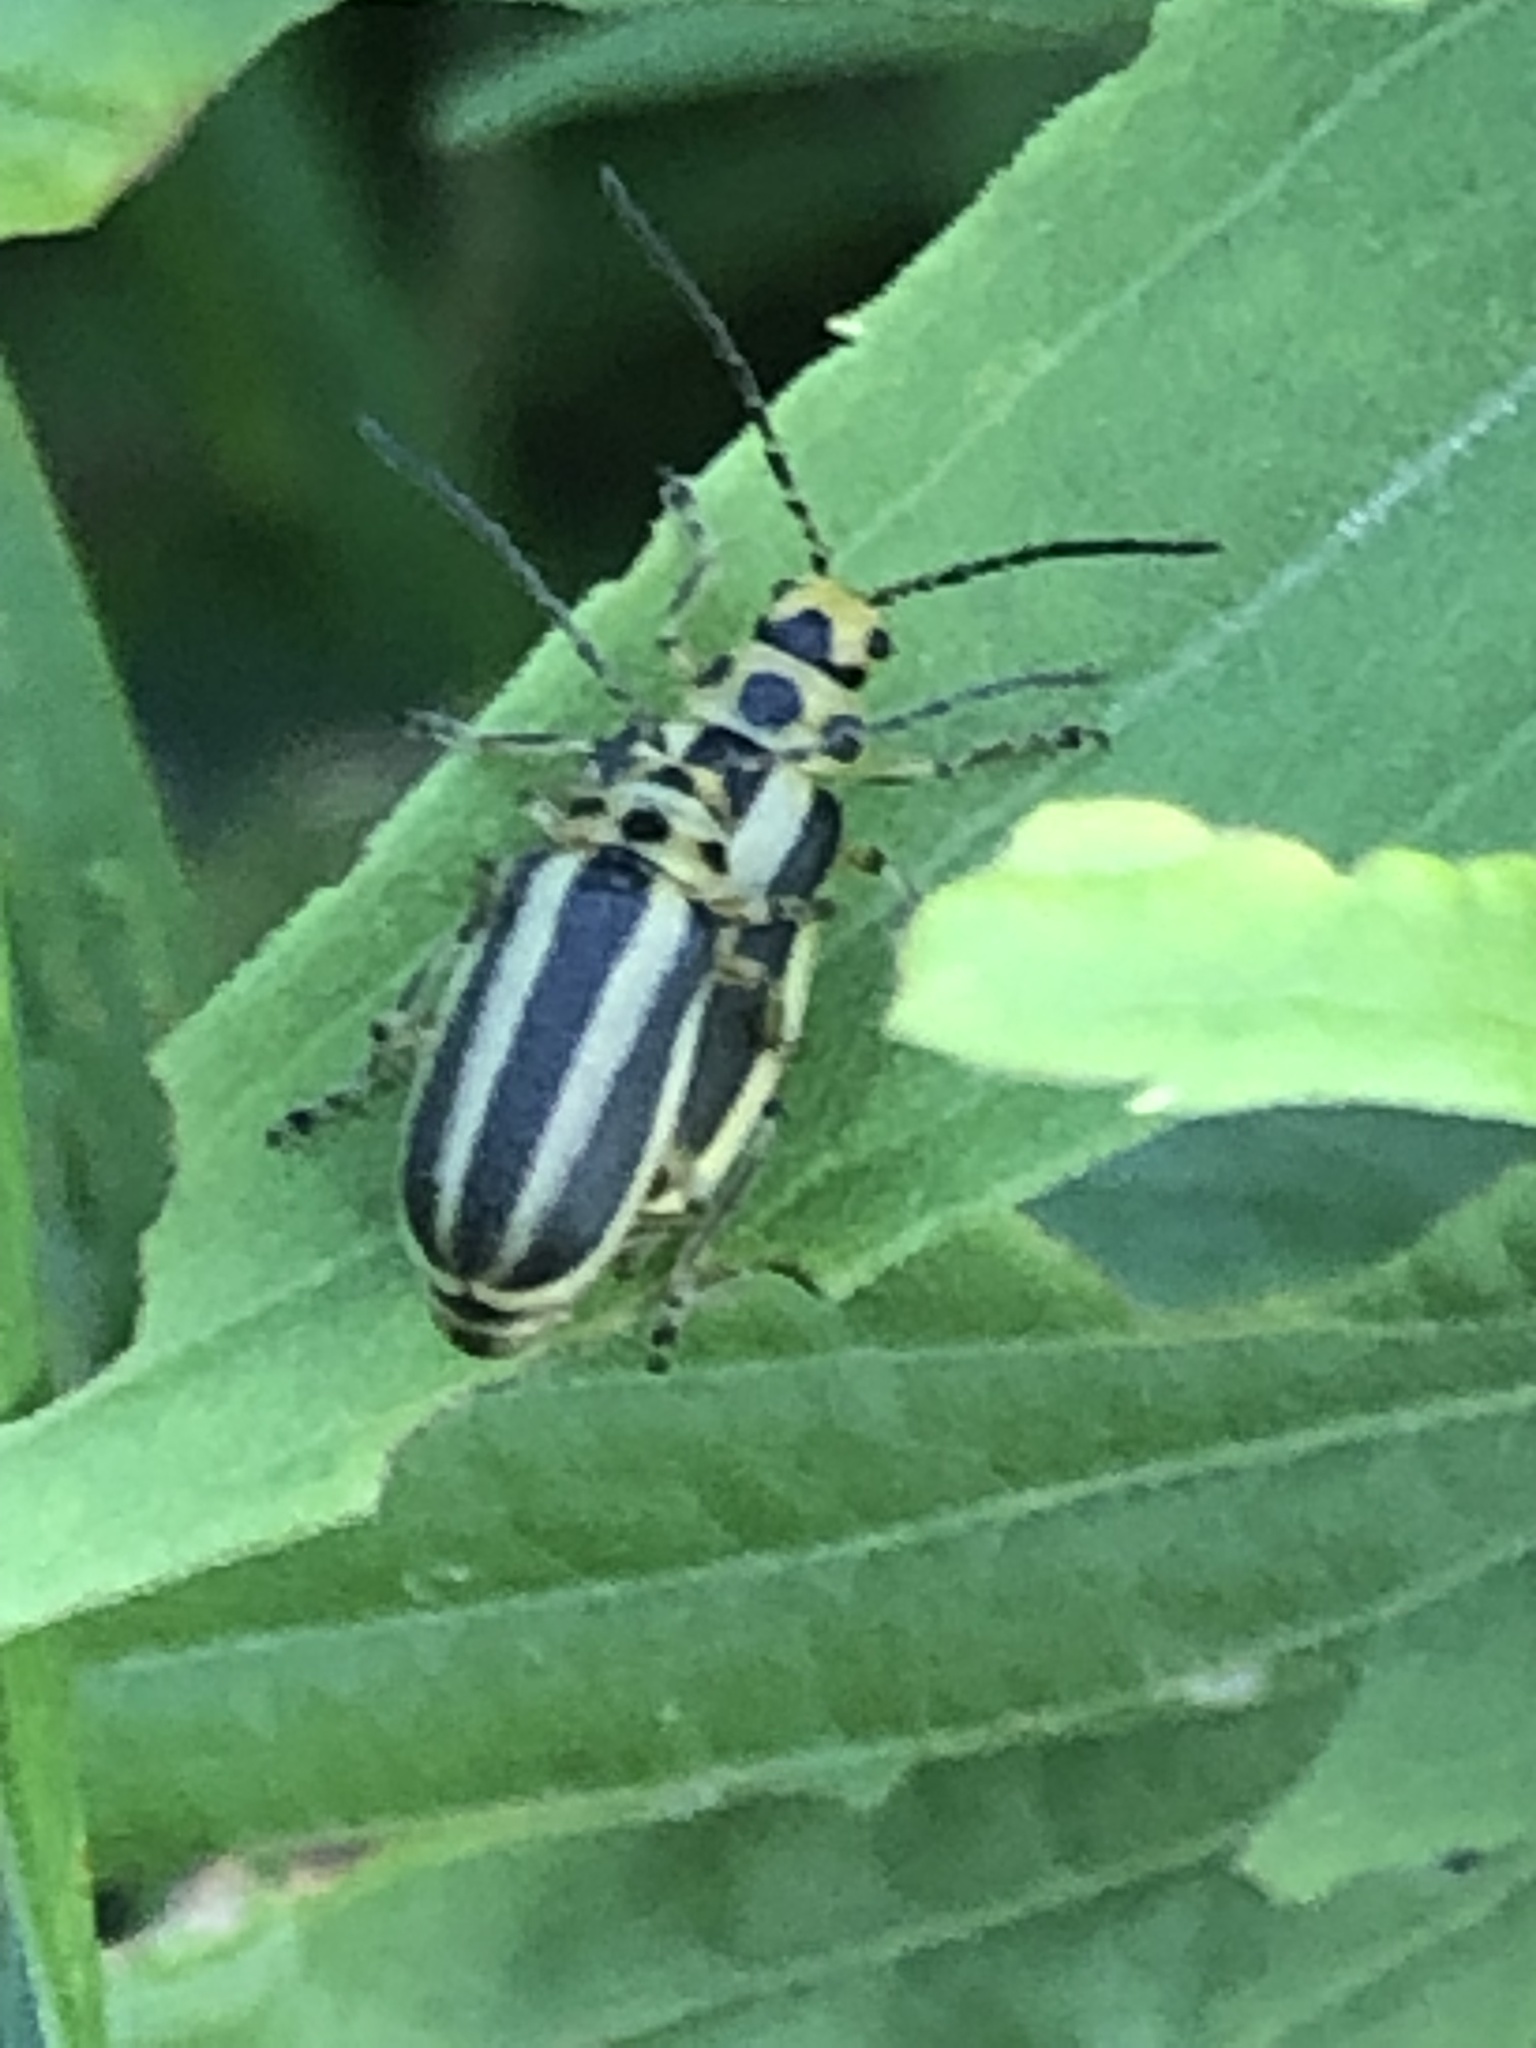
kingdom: Animalia
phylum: Arthropoda
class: Insecta
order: Coleoptera
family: Chrysomelidae
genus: Trirhabda
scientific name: Trirhabda canadensis
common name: Goldenrod leaf beetle
